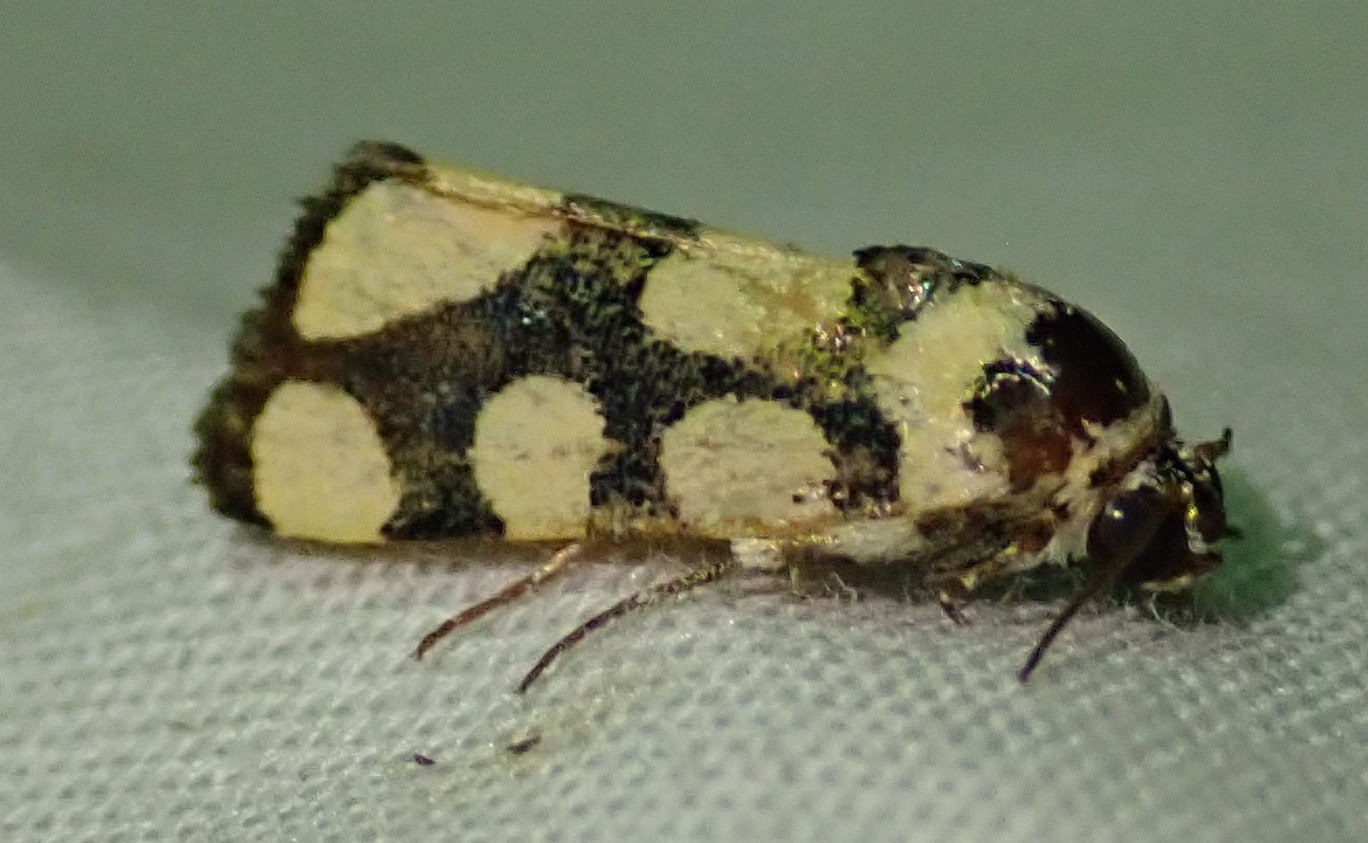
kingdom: Animalia
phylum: Arthropoda
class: Insecta
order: Lepidoptera
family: Noctuidae
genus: Acontia
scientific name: Acontia guttifera
